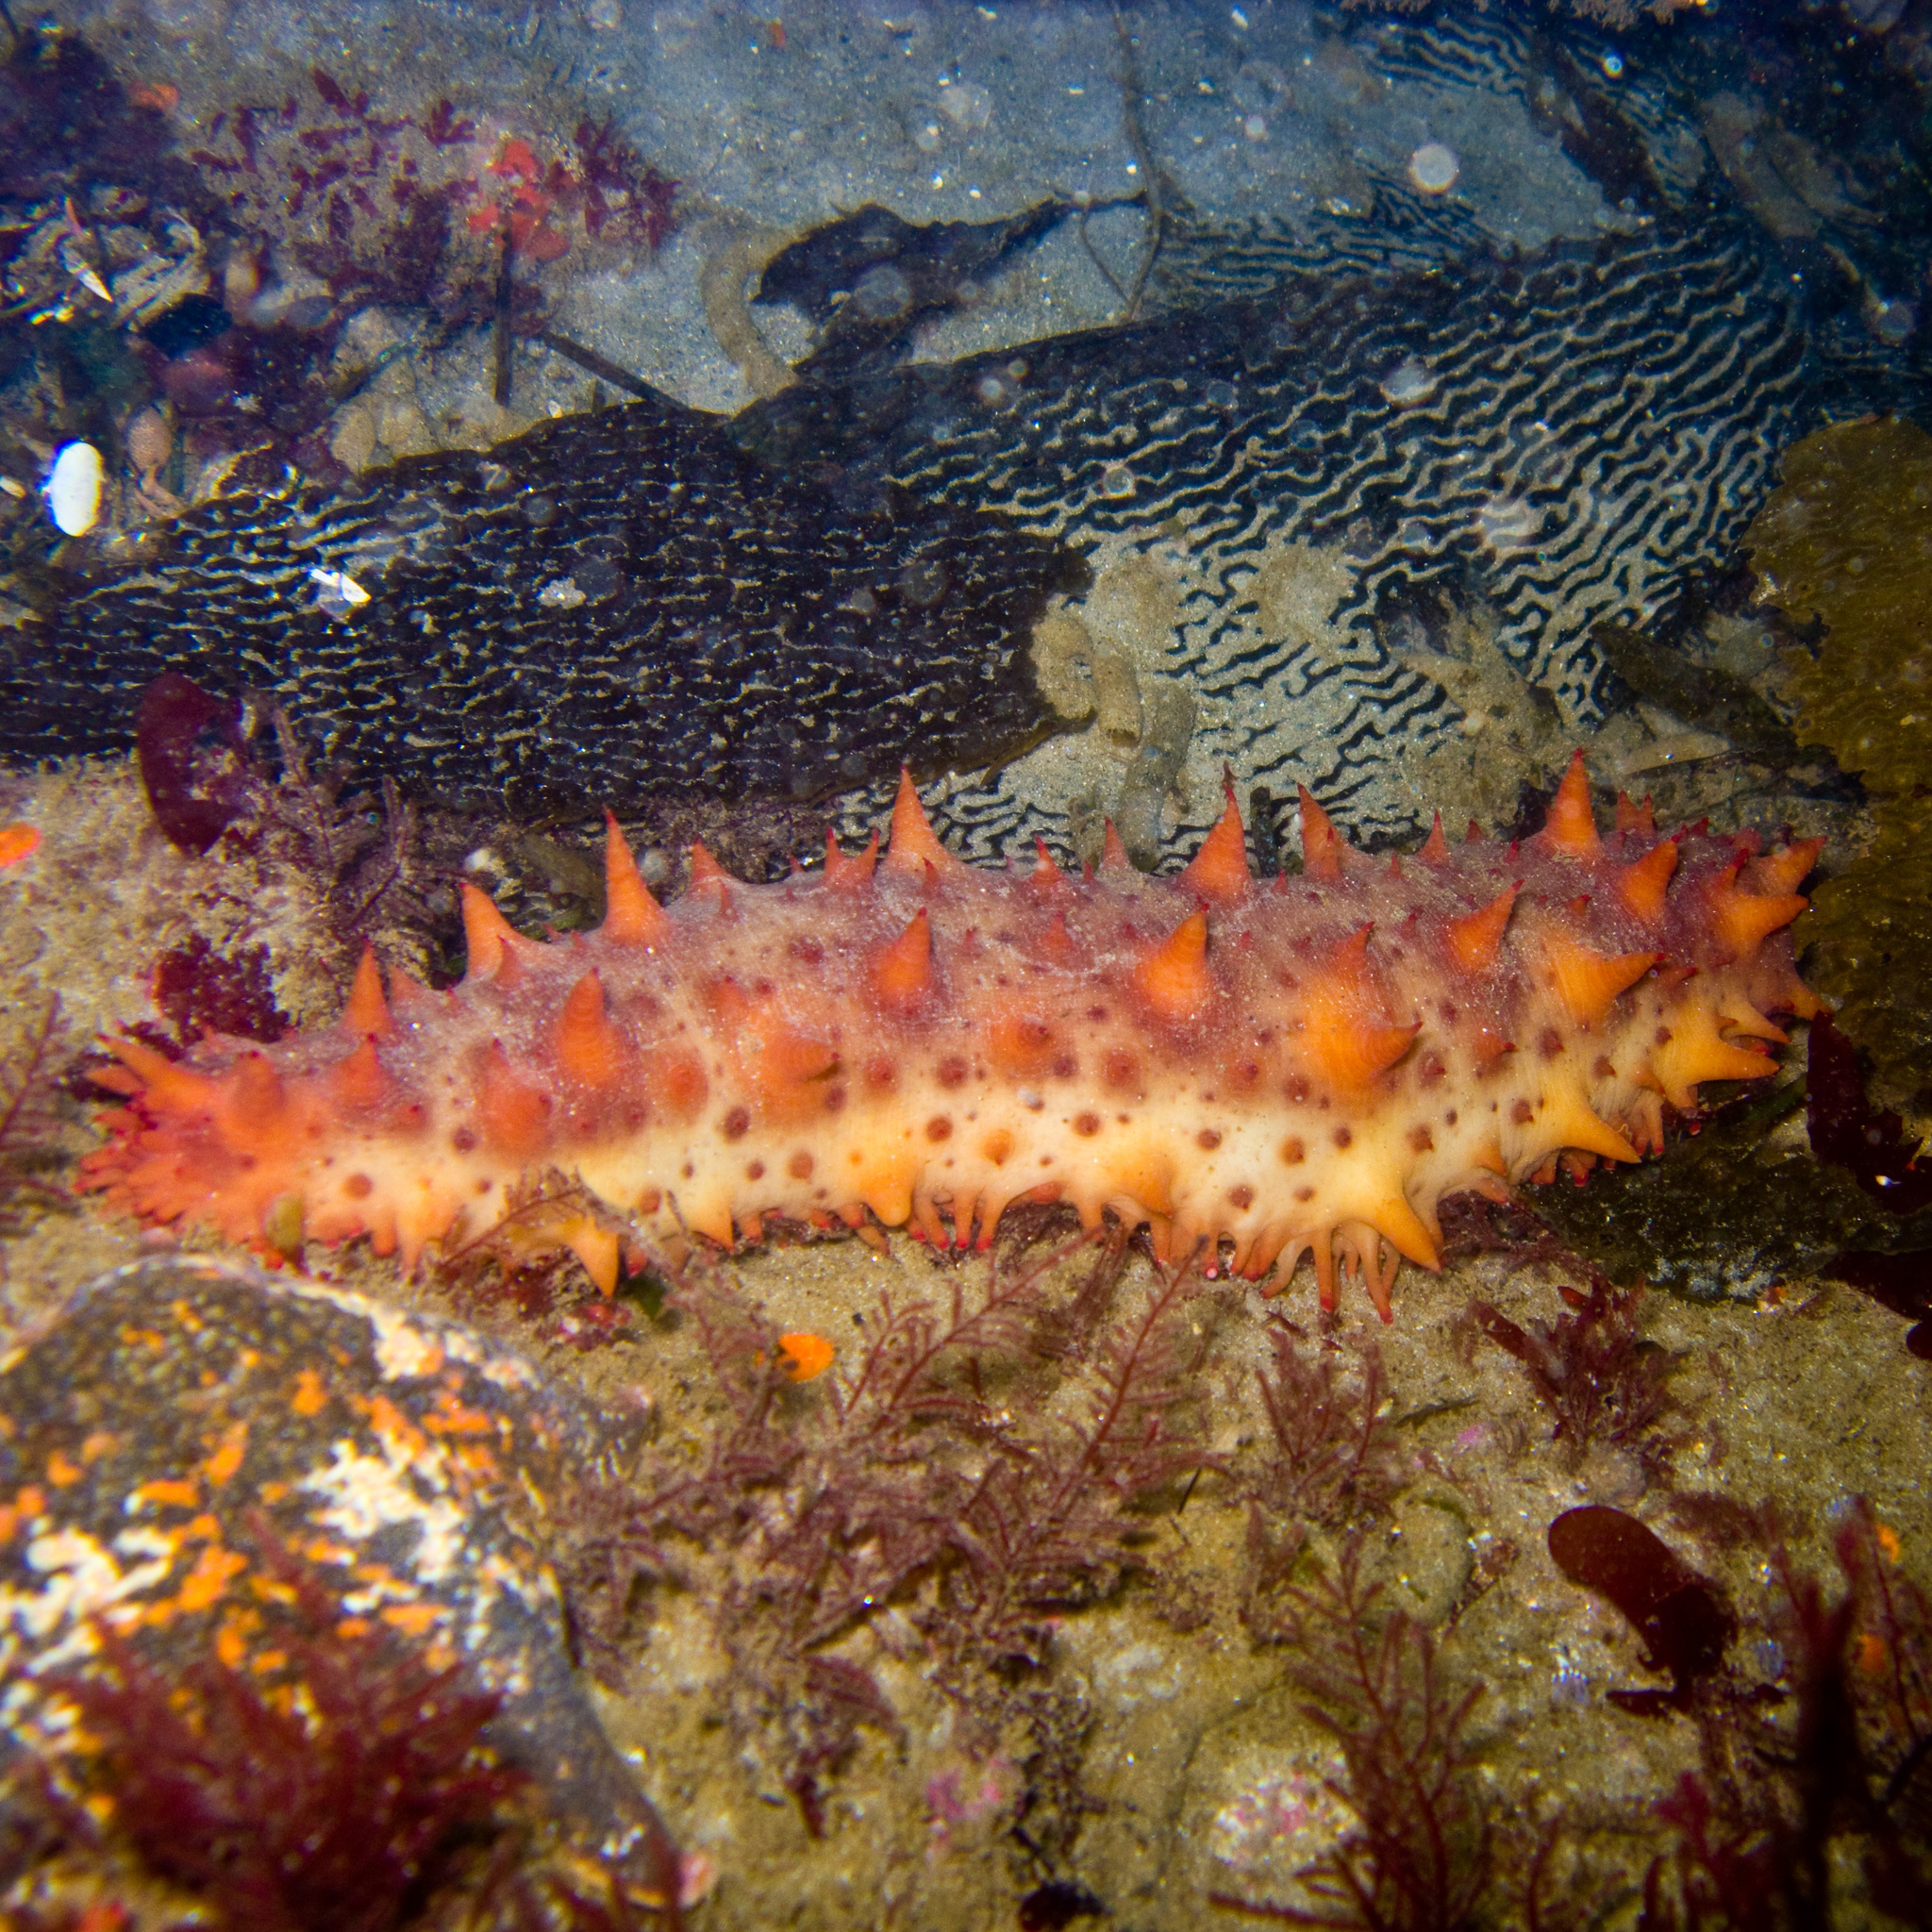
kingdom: Animalia
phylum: Echinodermata
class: Holothuroidea
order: Synallactida
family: Stichopodidae
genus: Apostichopus
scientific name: Apostichopus californicus
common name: California sea cucumber
